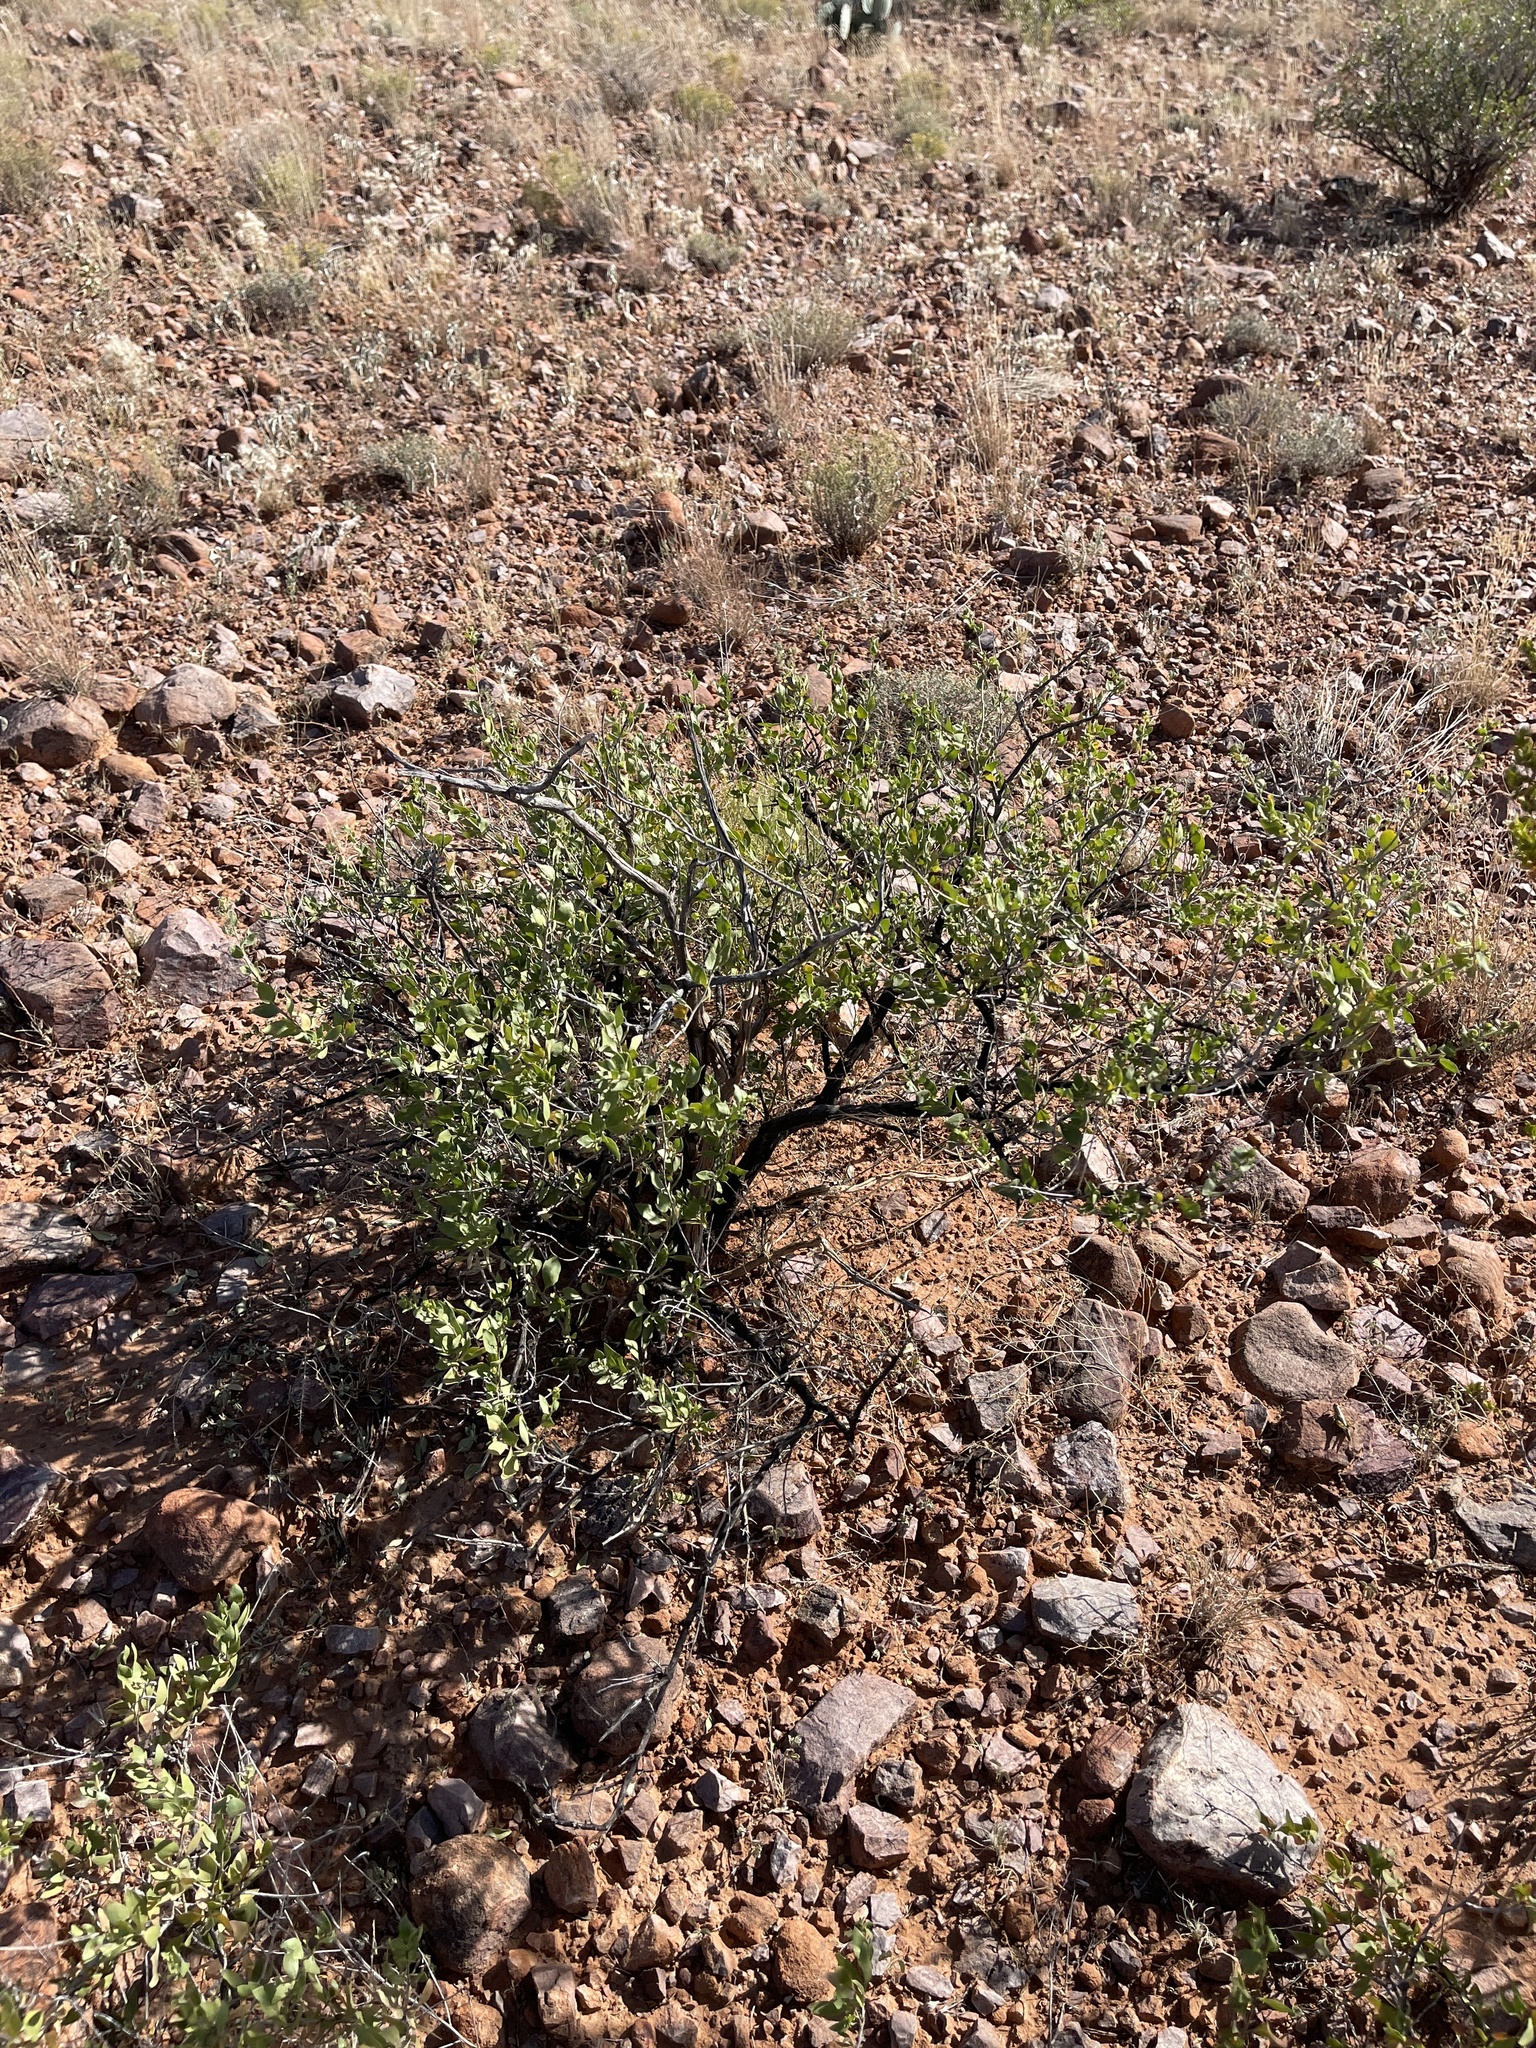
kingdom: Plantae
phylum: Tracheophyta
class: Magnoliopsida
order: Asterales
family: Asteraceae
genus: Flourensia
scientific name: Flourensia cernua
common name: Varnishbush
